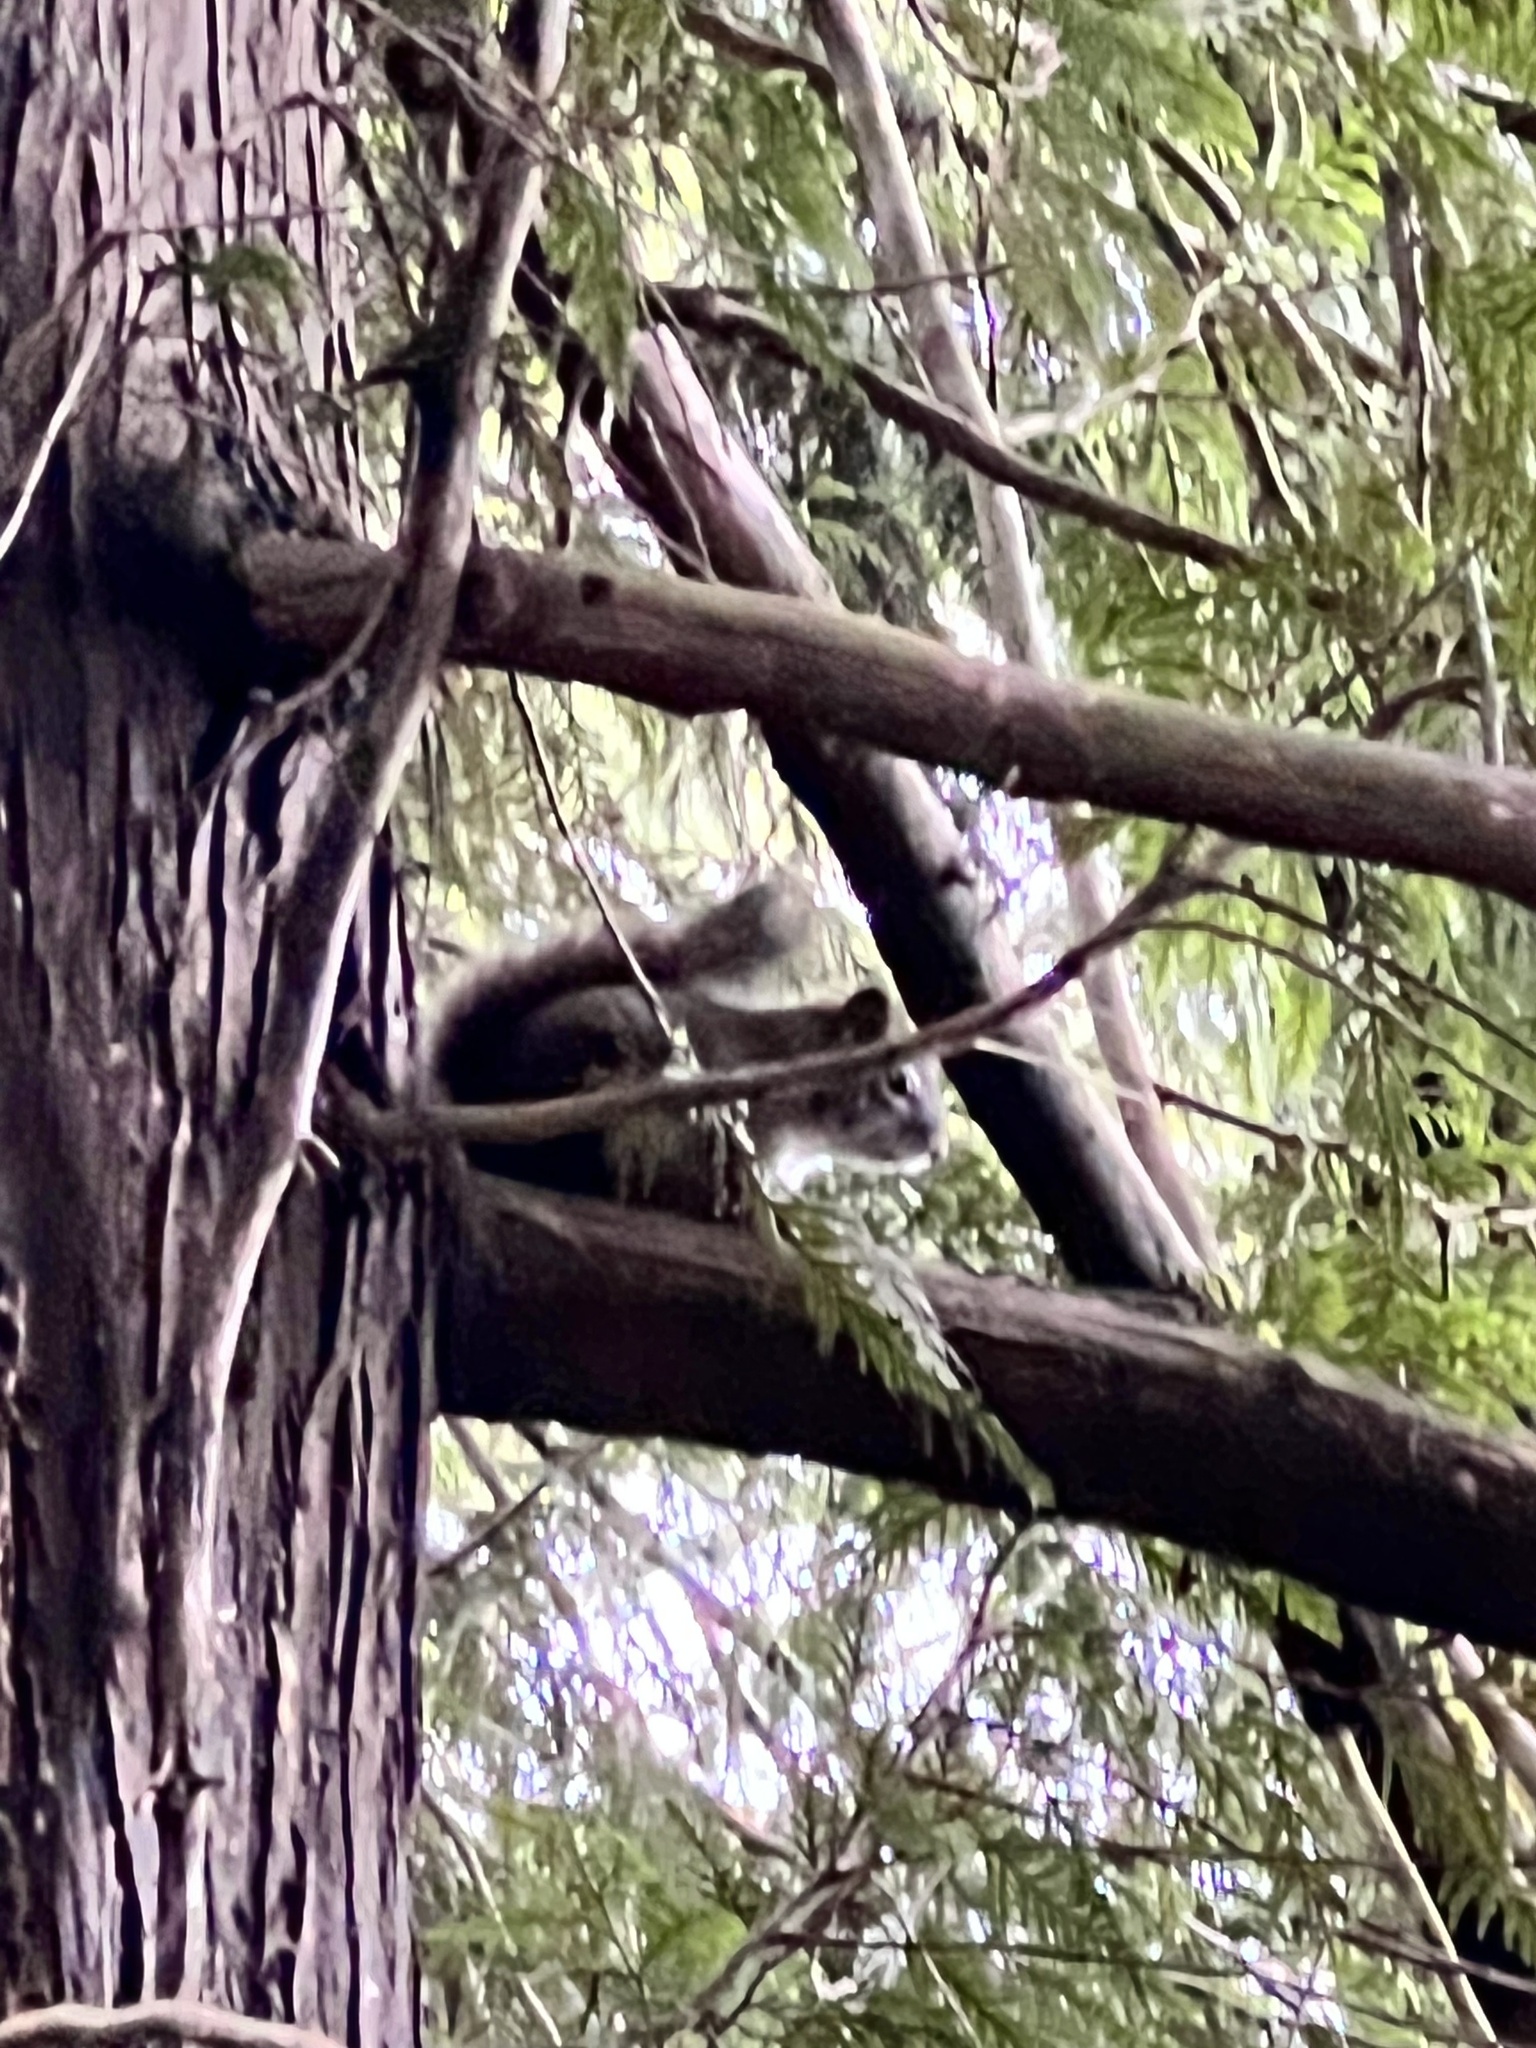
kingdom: Animalia
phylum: Chordata
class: Mammalia
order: Rodentia
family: Sciuridae
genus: Tamiasciurus
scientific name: Tamiasciurus hudsonicus
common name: Red squirrel
